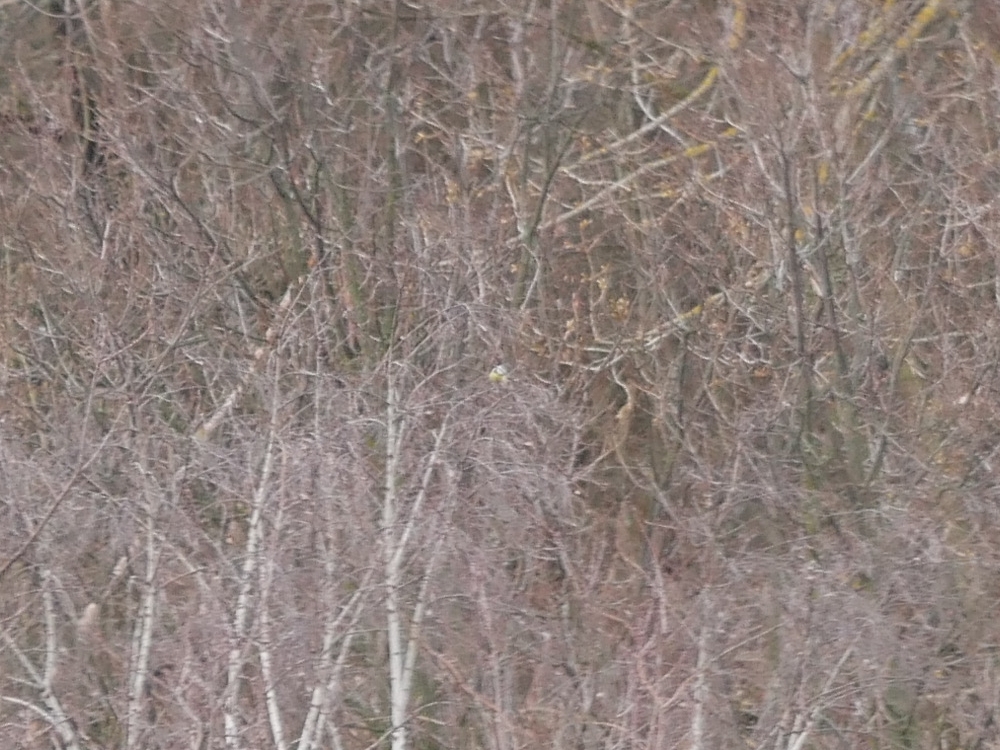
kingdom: Animalia
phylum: Chordata
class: Aves
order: Passeriformes
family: Paridae
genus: Cyanistes
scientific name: Cyanistes caeruleus
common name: Eurasian blue tit
